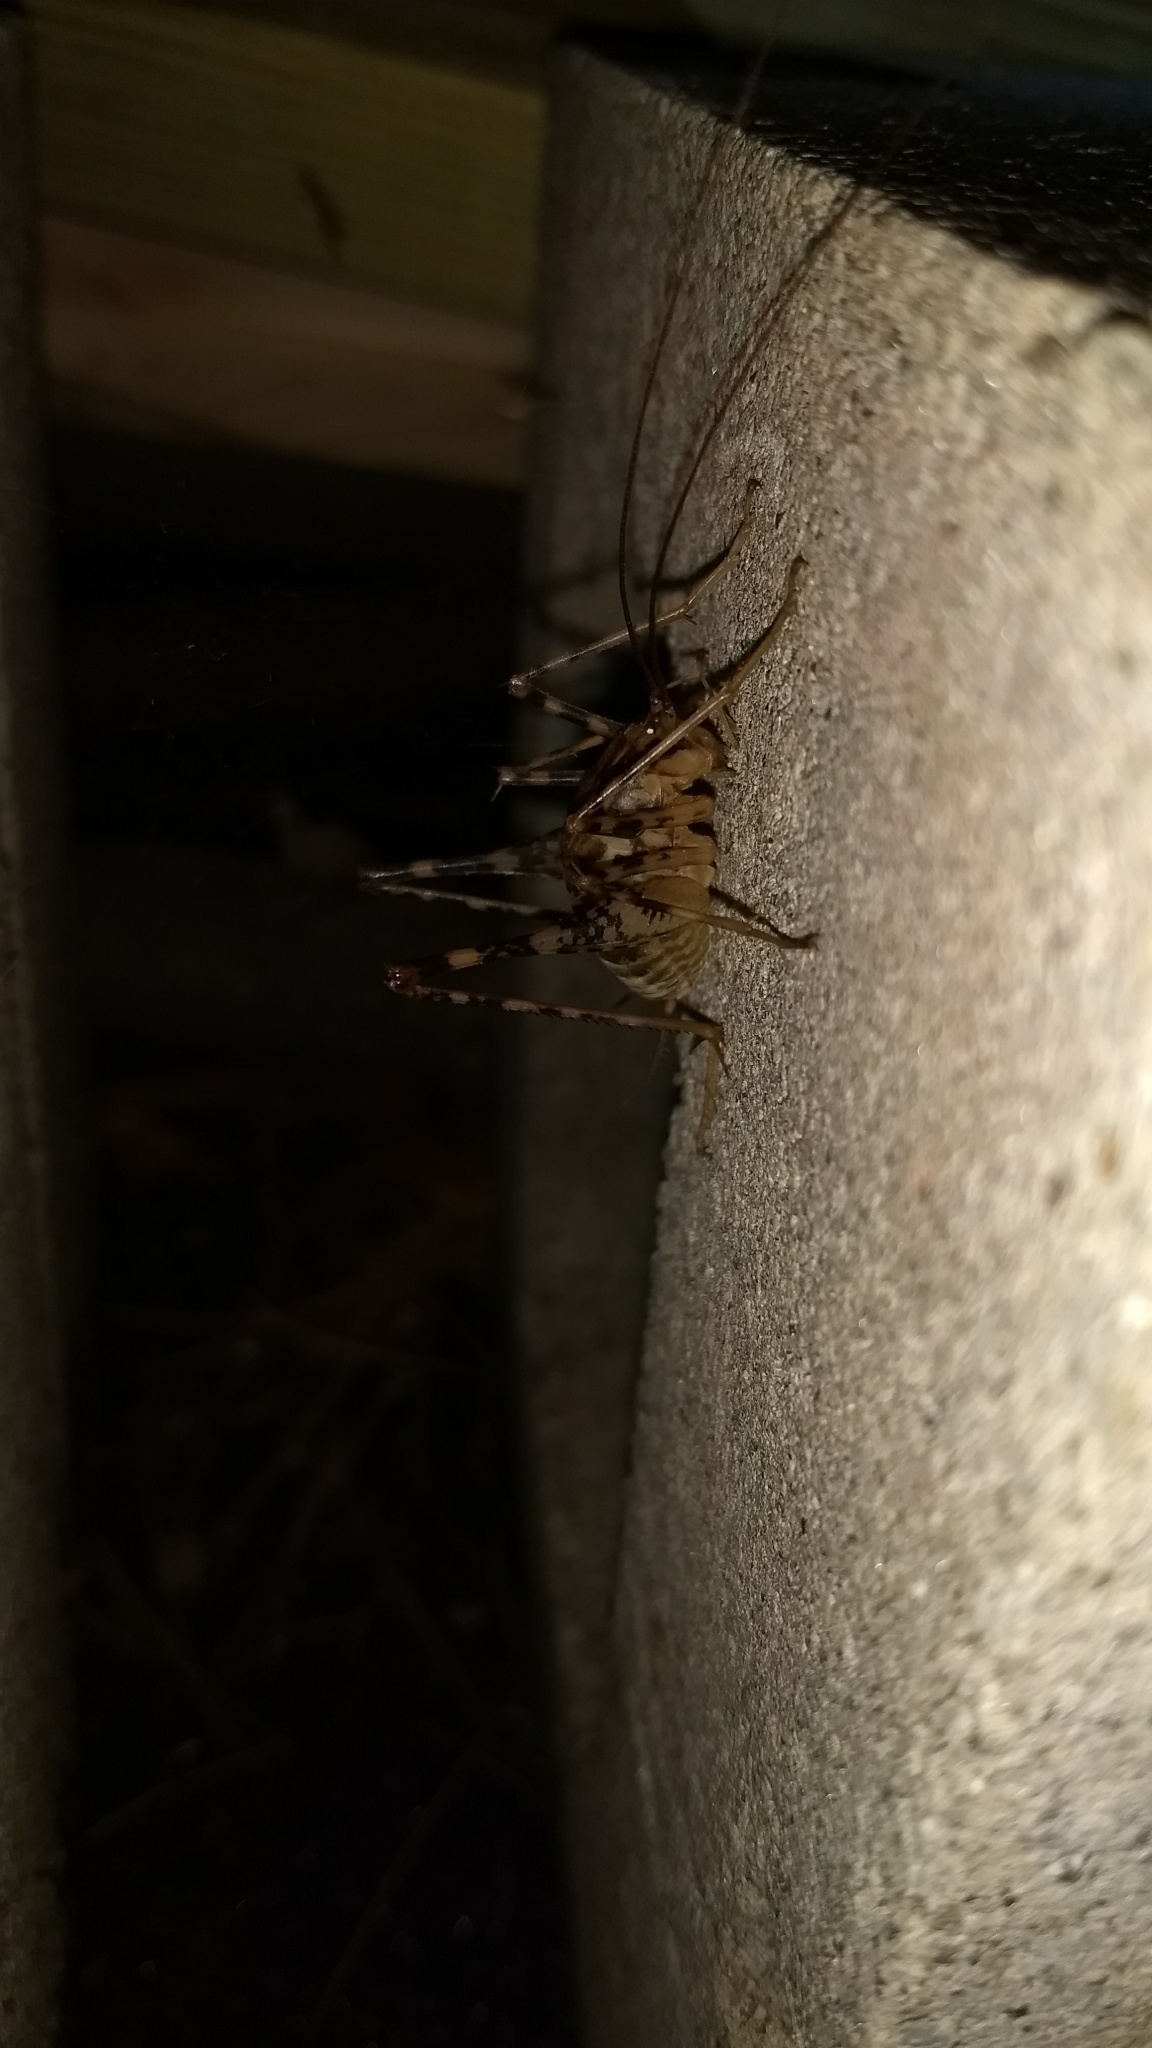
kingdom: Animalia
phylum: Arthropoda
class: Insecta
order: Orthoptera
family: Rhaphidophoridae
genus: Diestrammena
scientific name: Diestrammena japanica
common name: Japanese camel cricket
